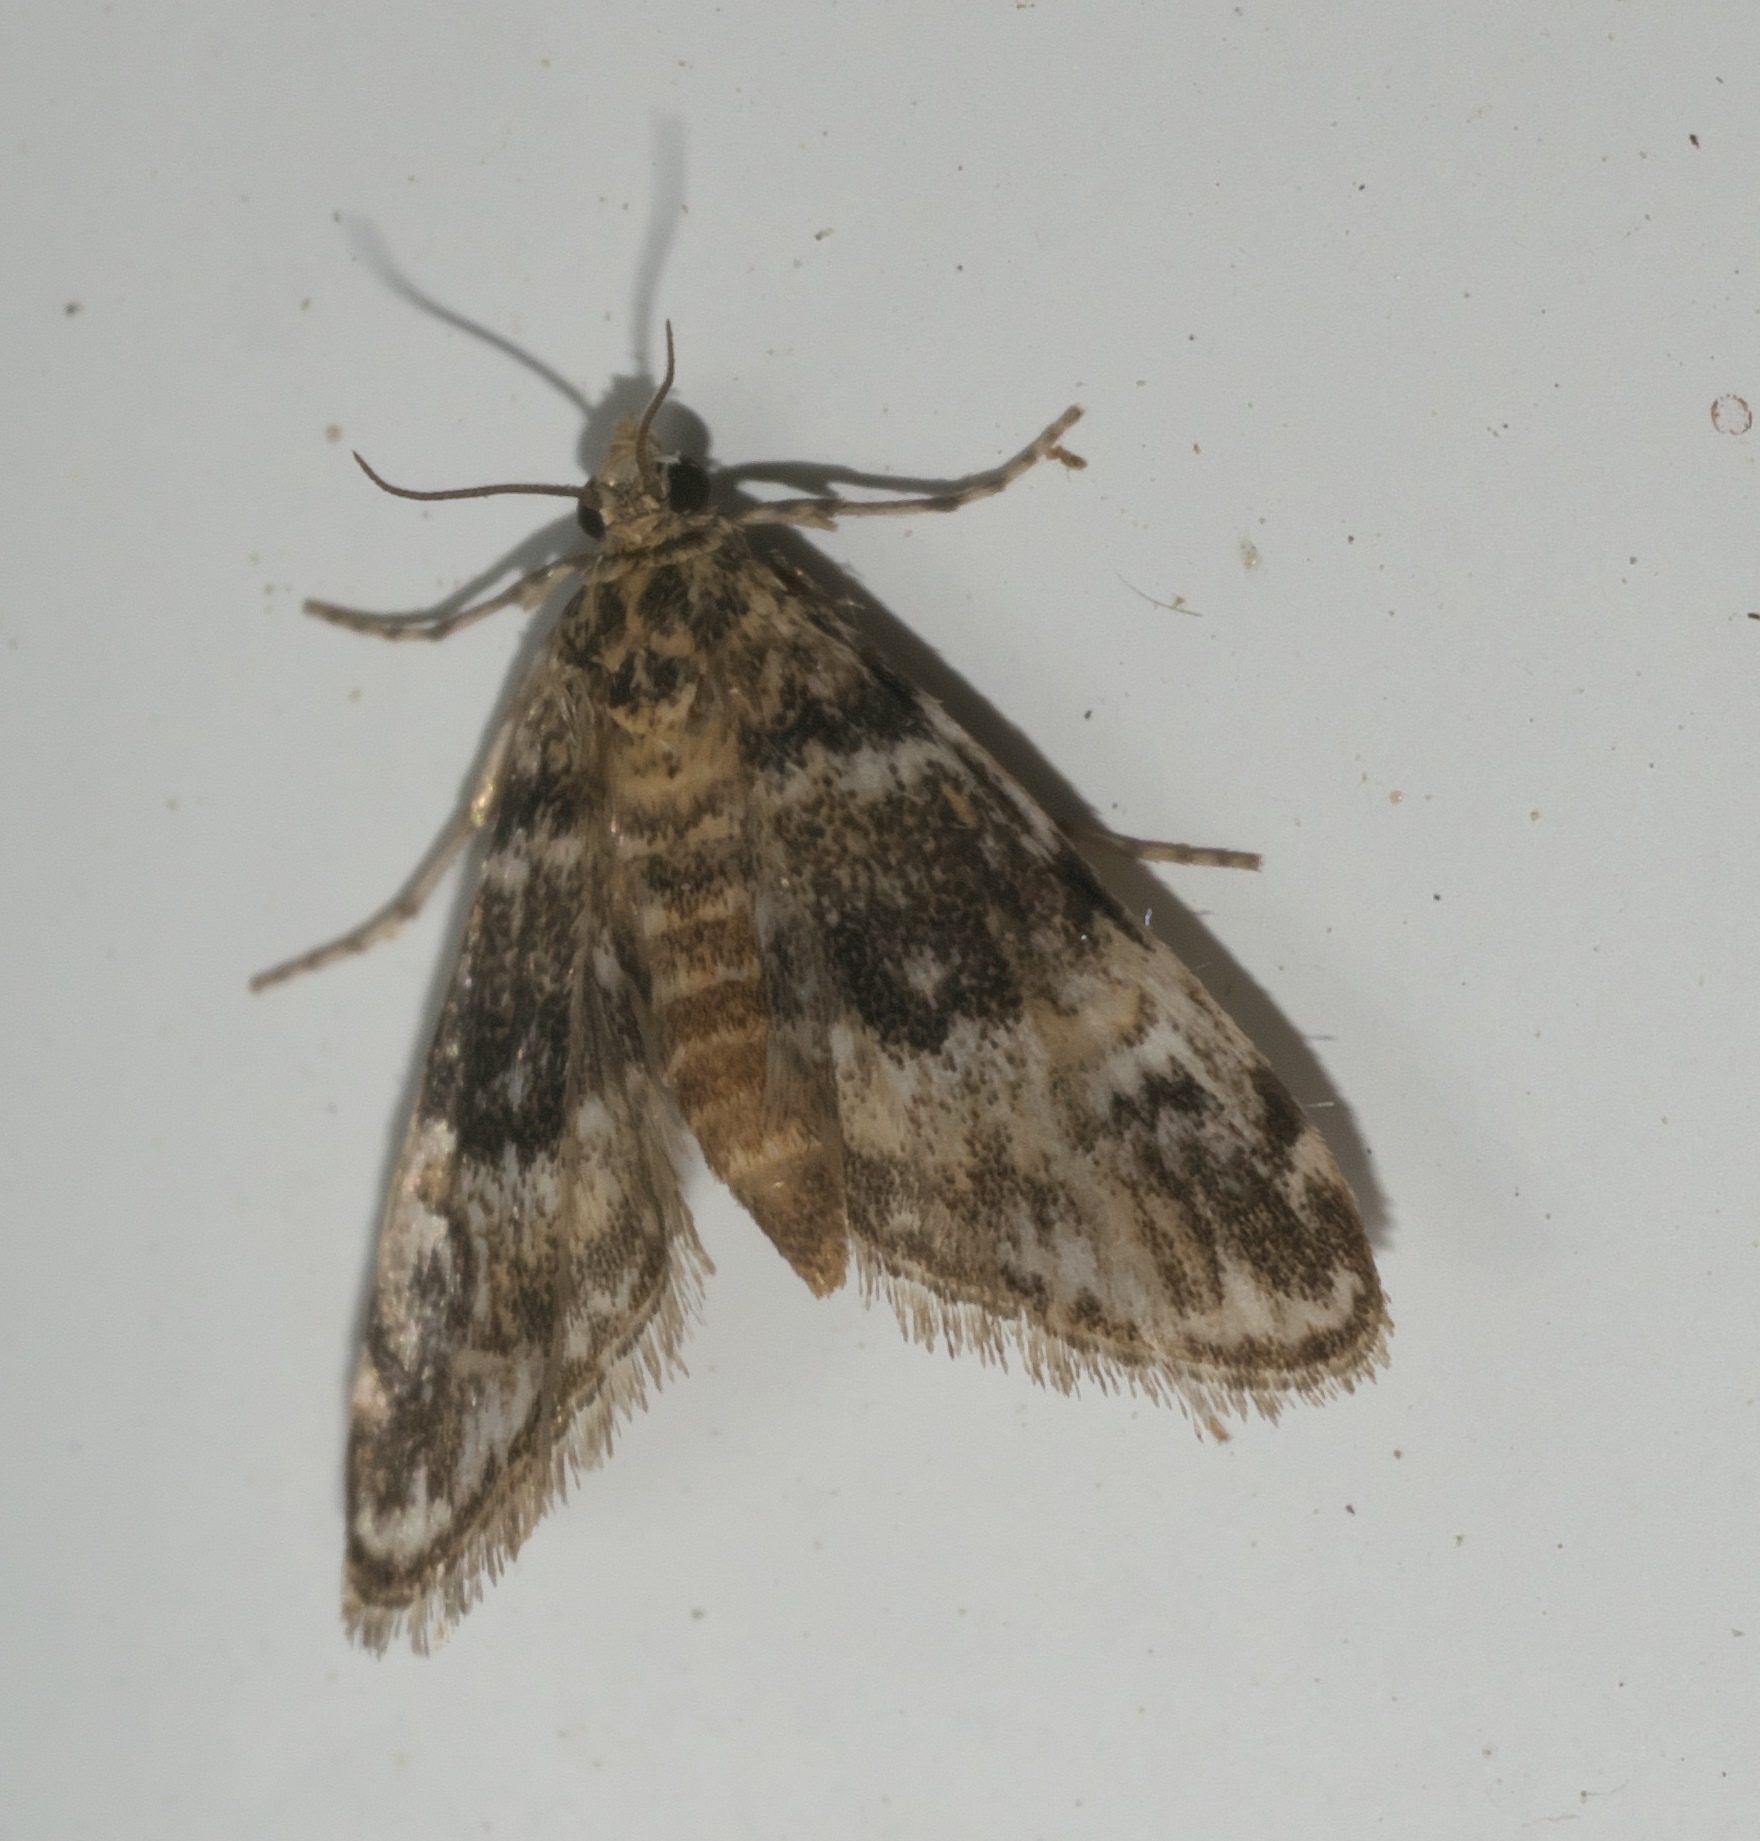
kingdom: Animalia
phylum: Arthropoda
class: Insecta
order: Lepidoptera
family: Crambidae
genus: Elophila
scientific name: Elophila obliteralis
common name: Waterlily leafcutter moth
